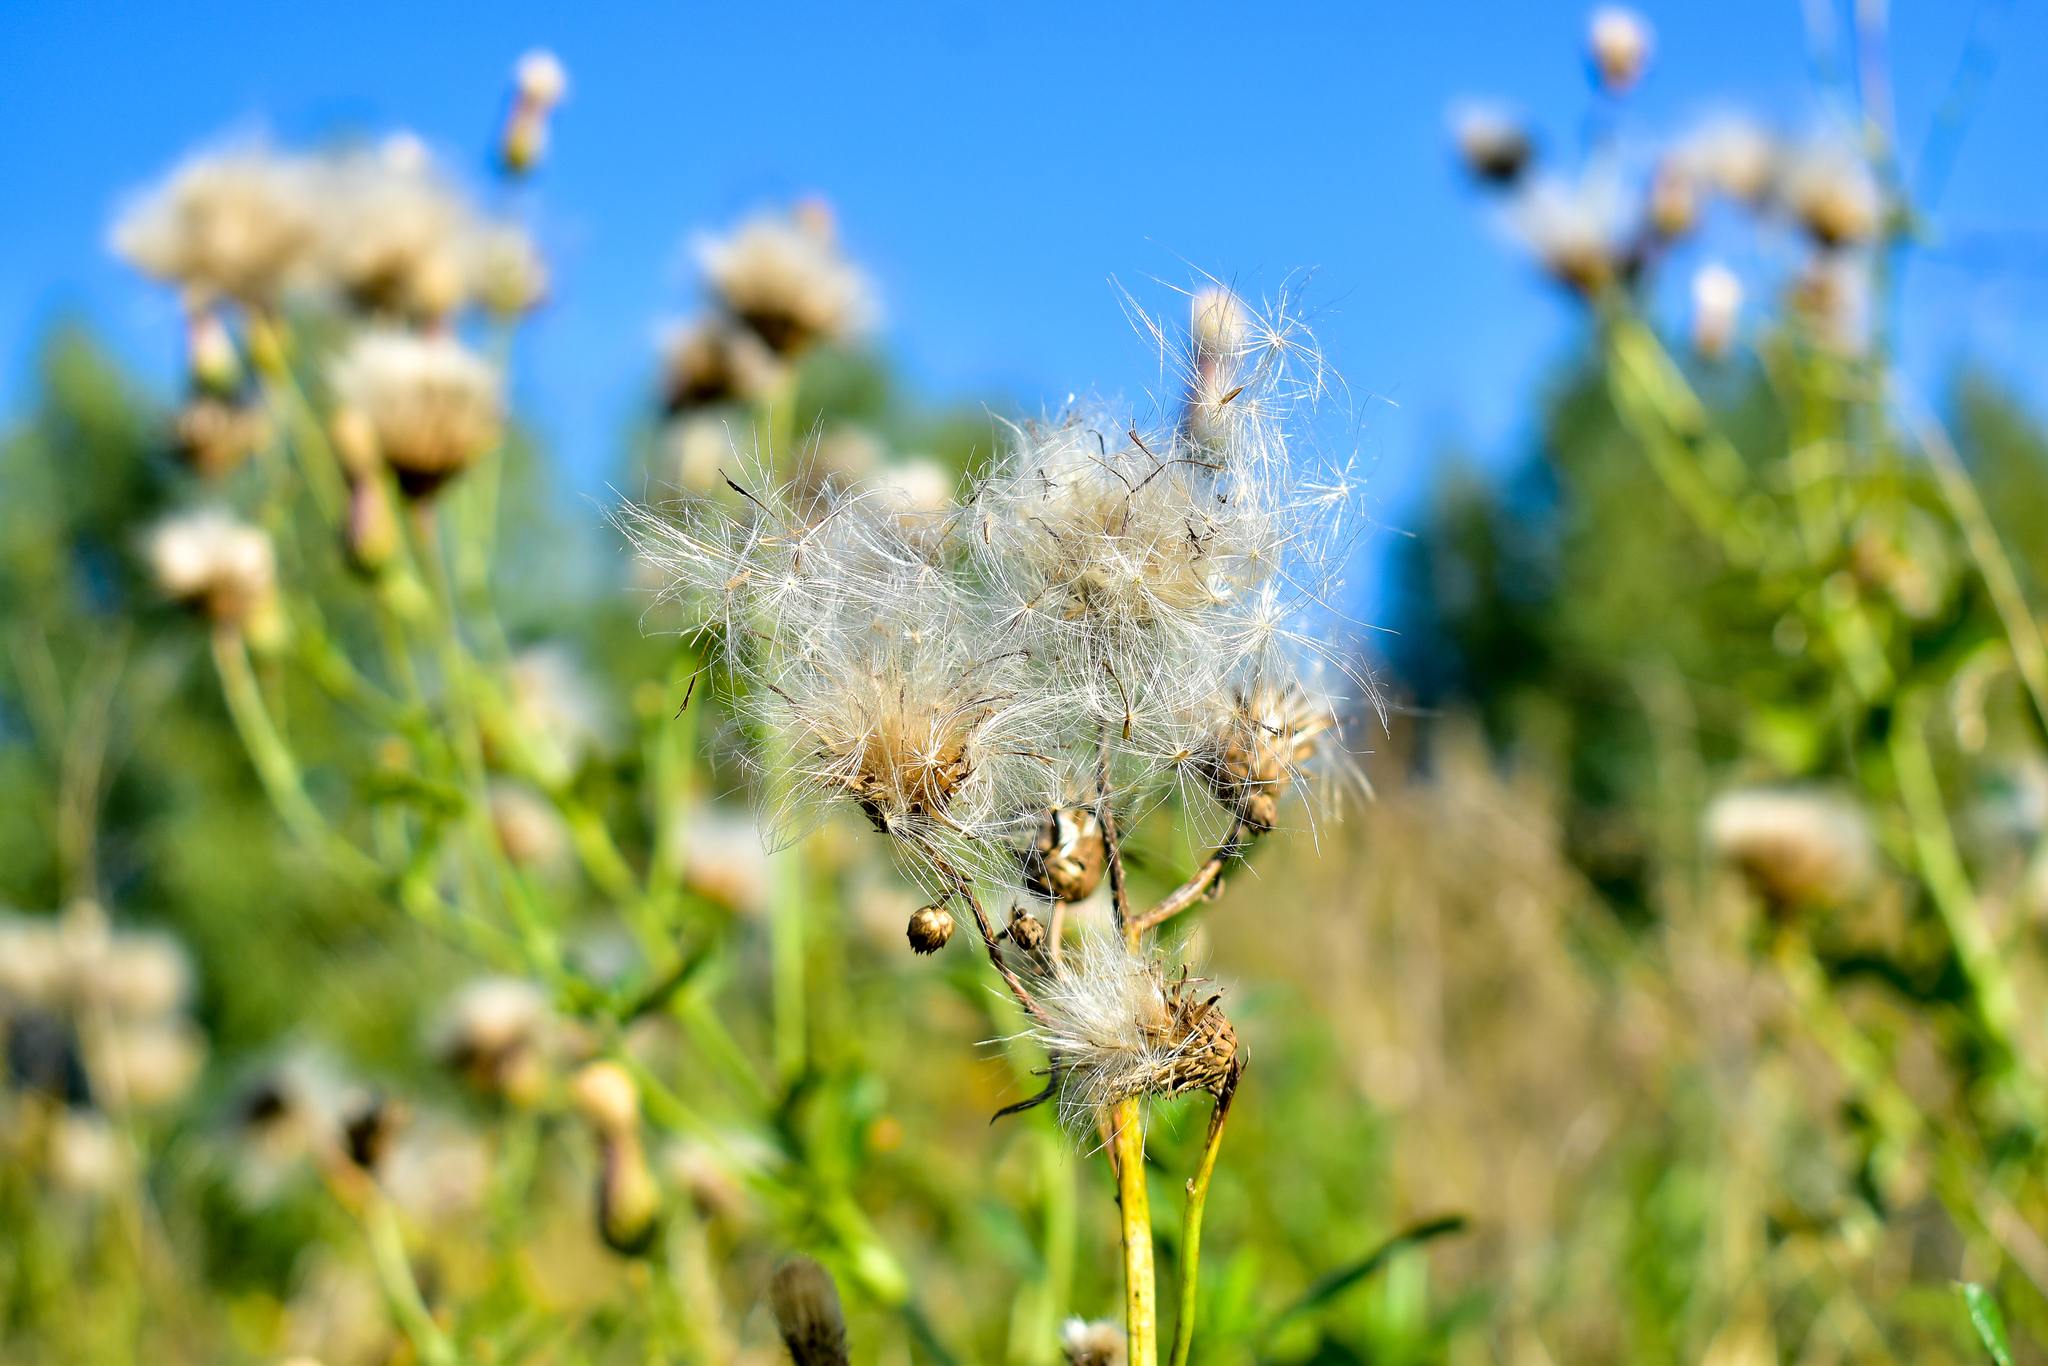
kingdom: Plantae
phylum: Tracheophyta
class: Magnoliopsida
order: Asterales
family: Asteraceae
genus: Cirsium
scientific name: Cirsium arvense
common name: Creeping thistle
